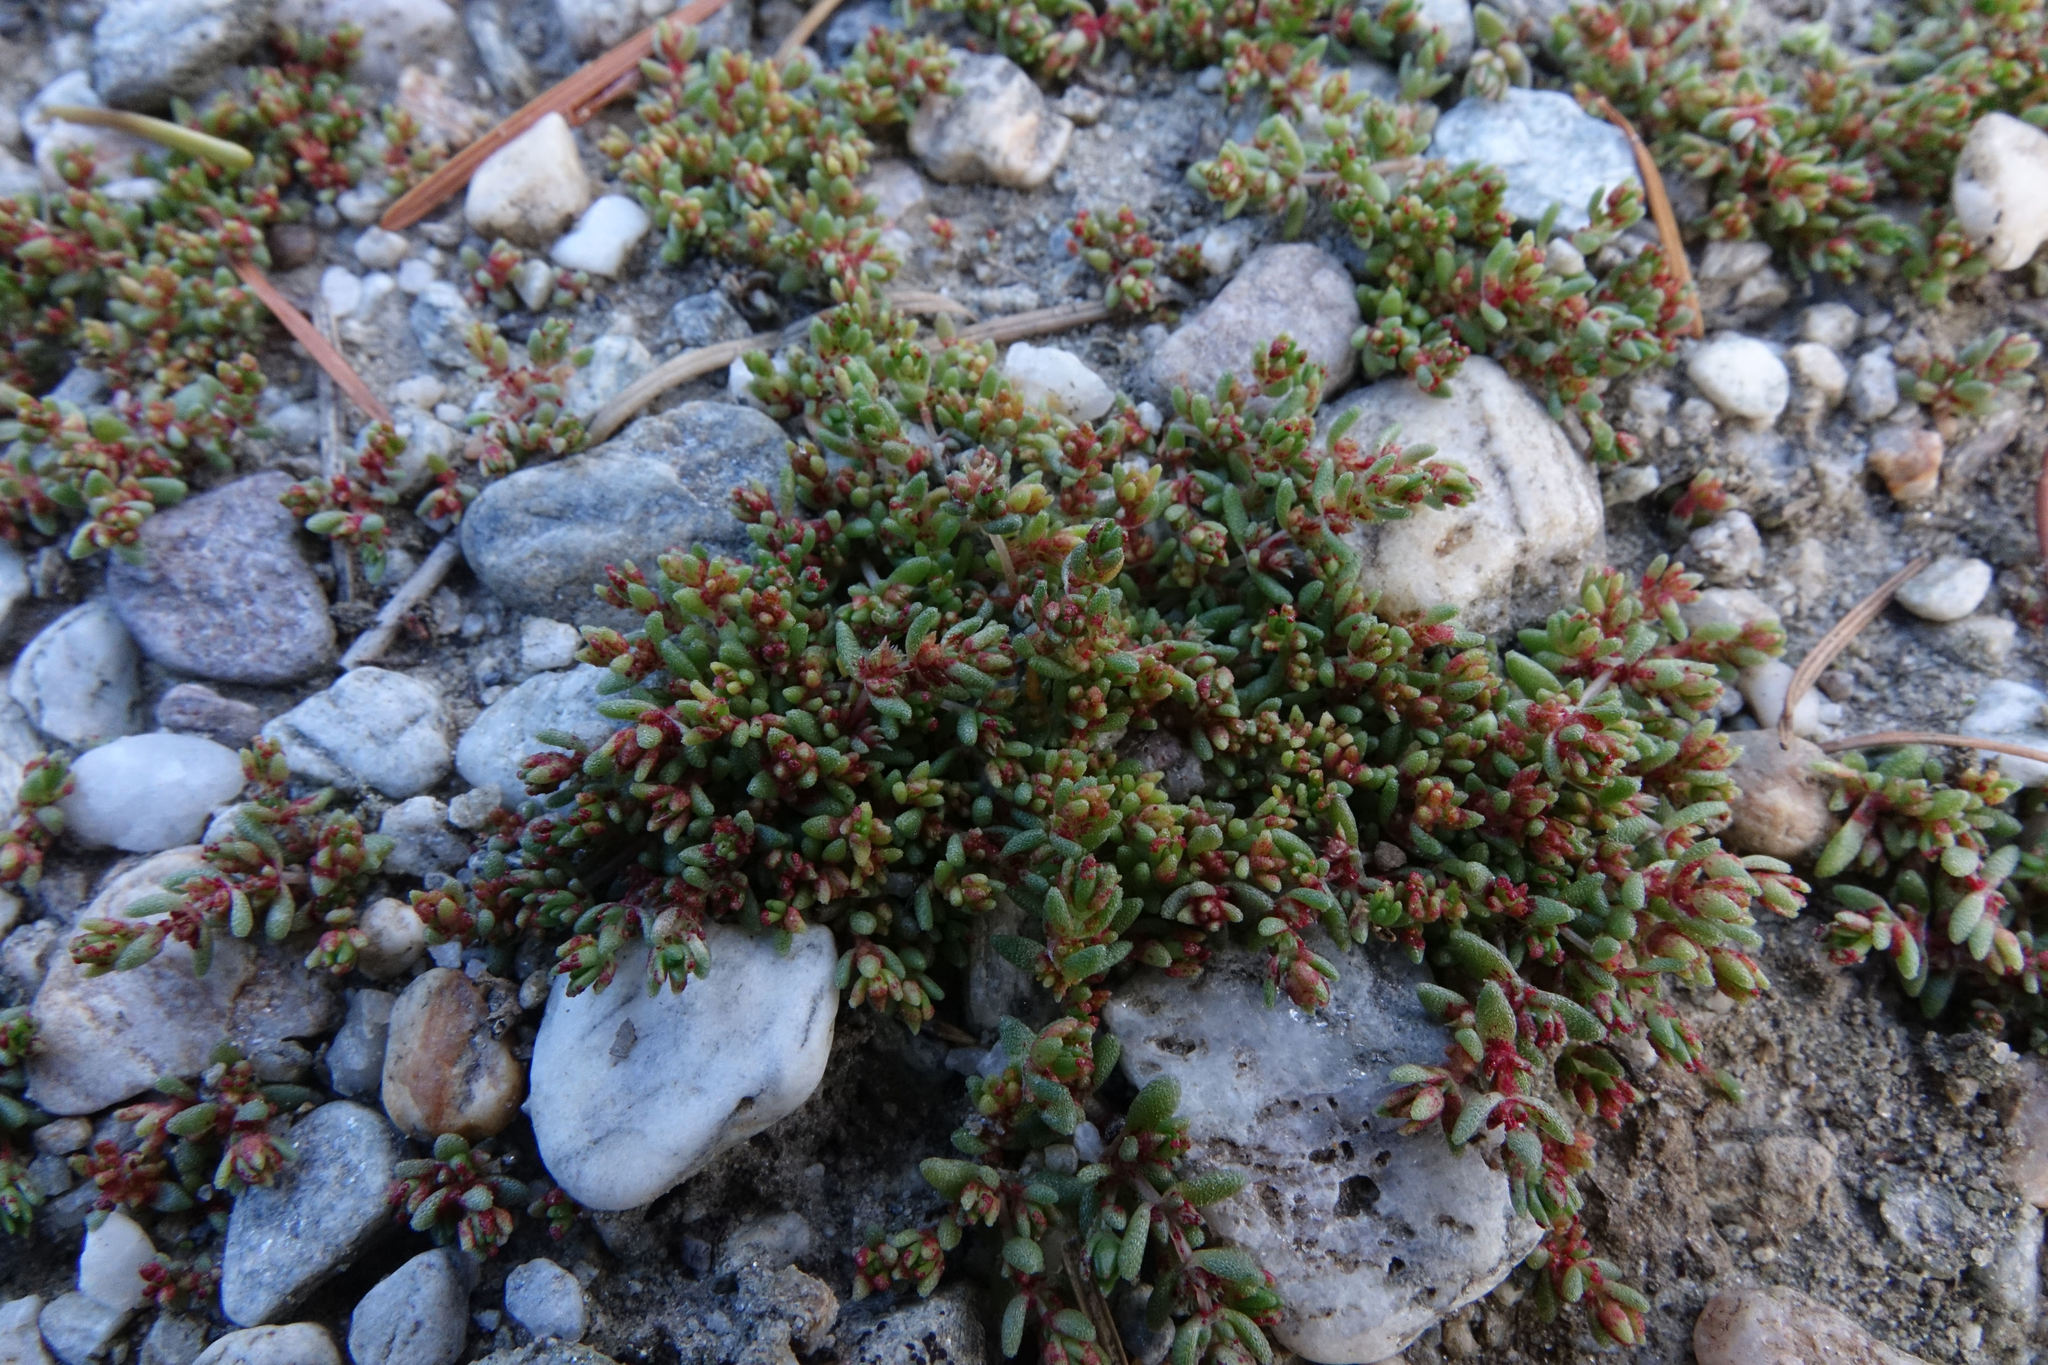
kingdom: Plantae
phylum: Tracheophyta
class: Magnoliopsida
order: Saxifragales
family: Crassulaceae
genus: Crassula
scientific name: Crassula mataikona
